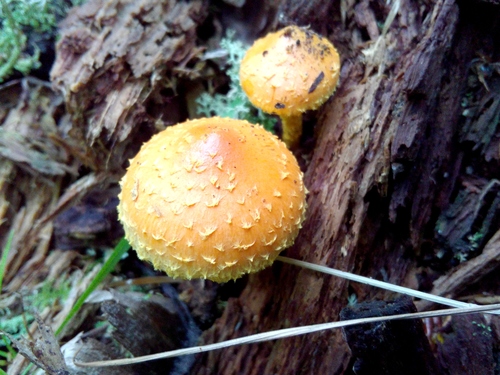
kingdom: Fungi
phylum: Basidiomycota
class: Agaricomycetes
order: Agaricales
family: Strophariaceae
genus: Pholiota
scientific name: Pholiota flammans
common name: Flaming scalycap
